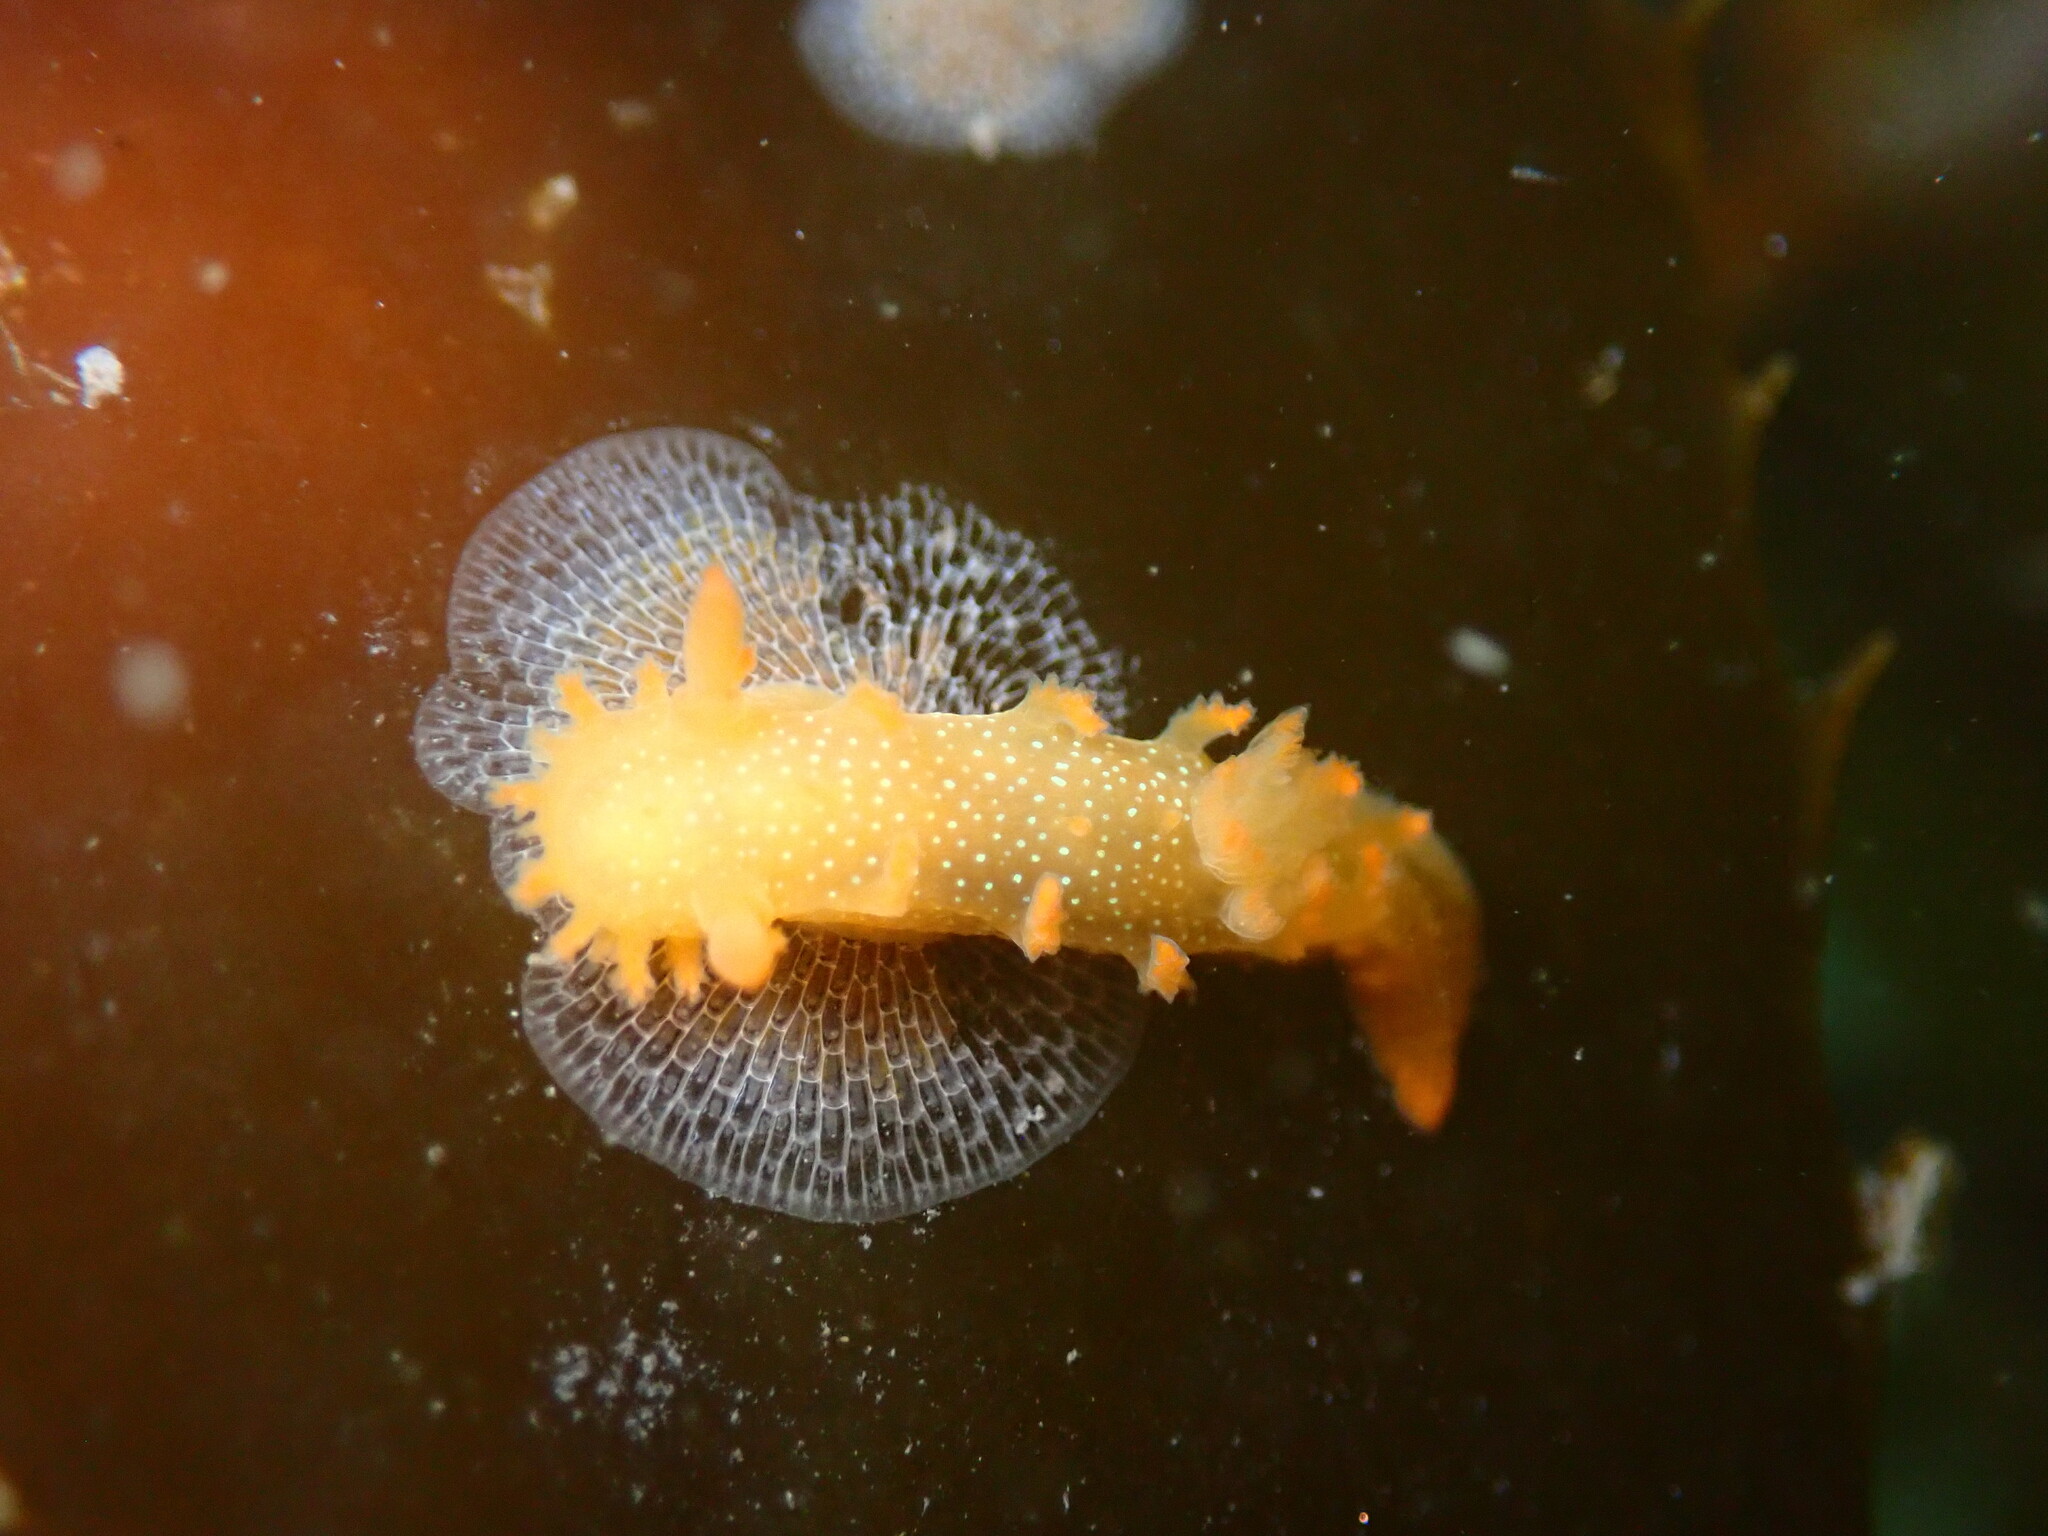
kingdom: Animalia
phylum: Mollusca
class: Gastropoda
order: Nudibranchia
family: Polyceridae
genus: Triopha
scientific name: Triopha maculata
